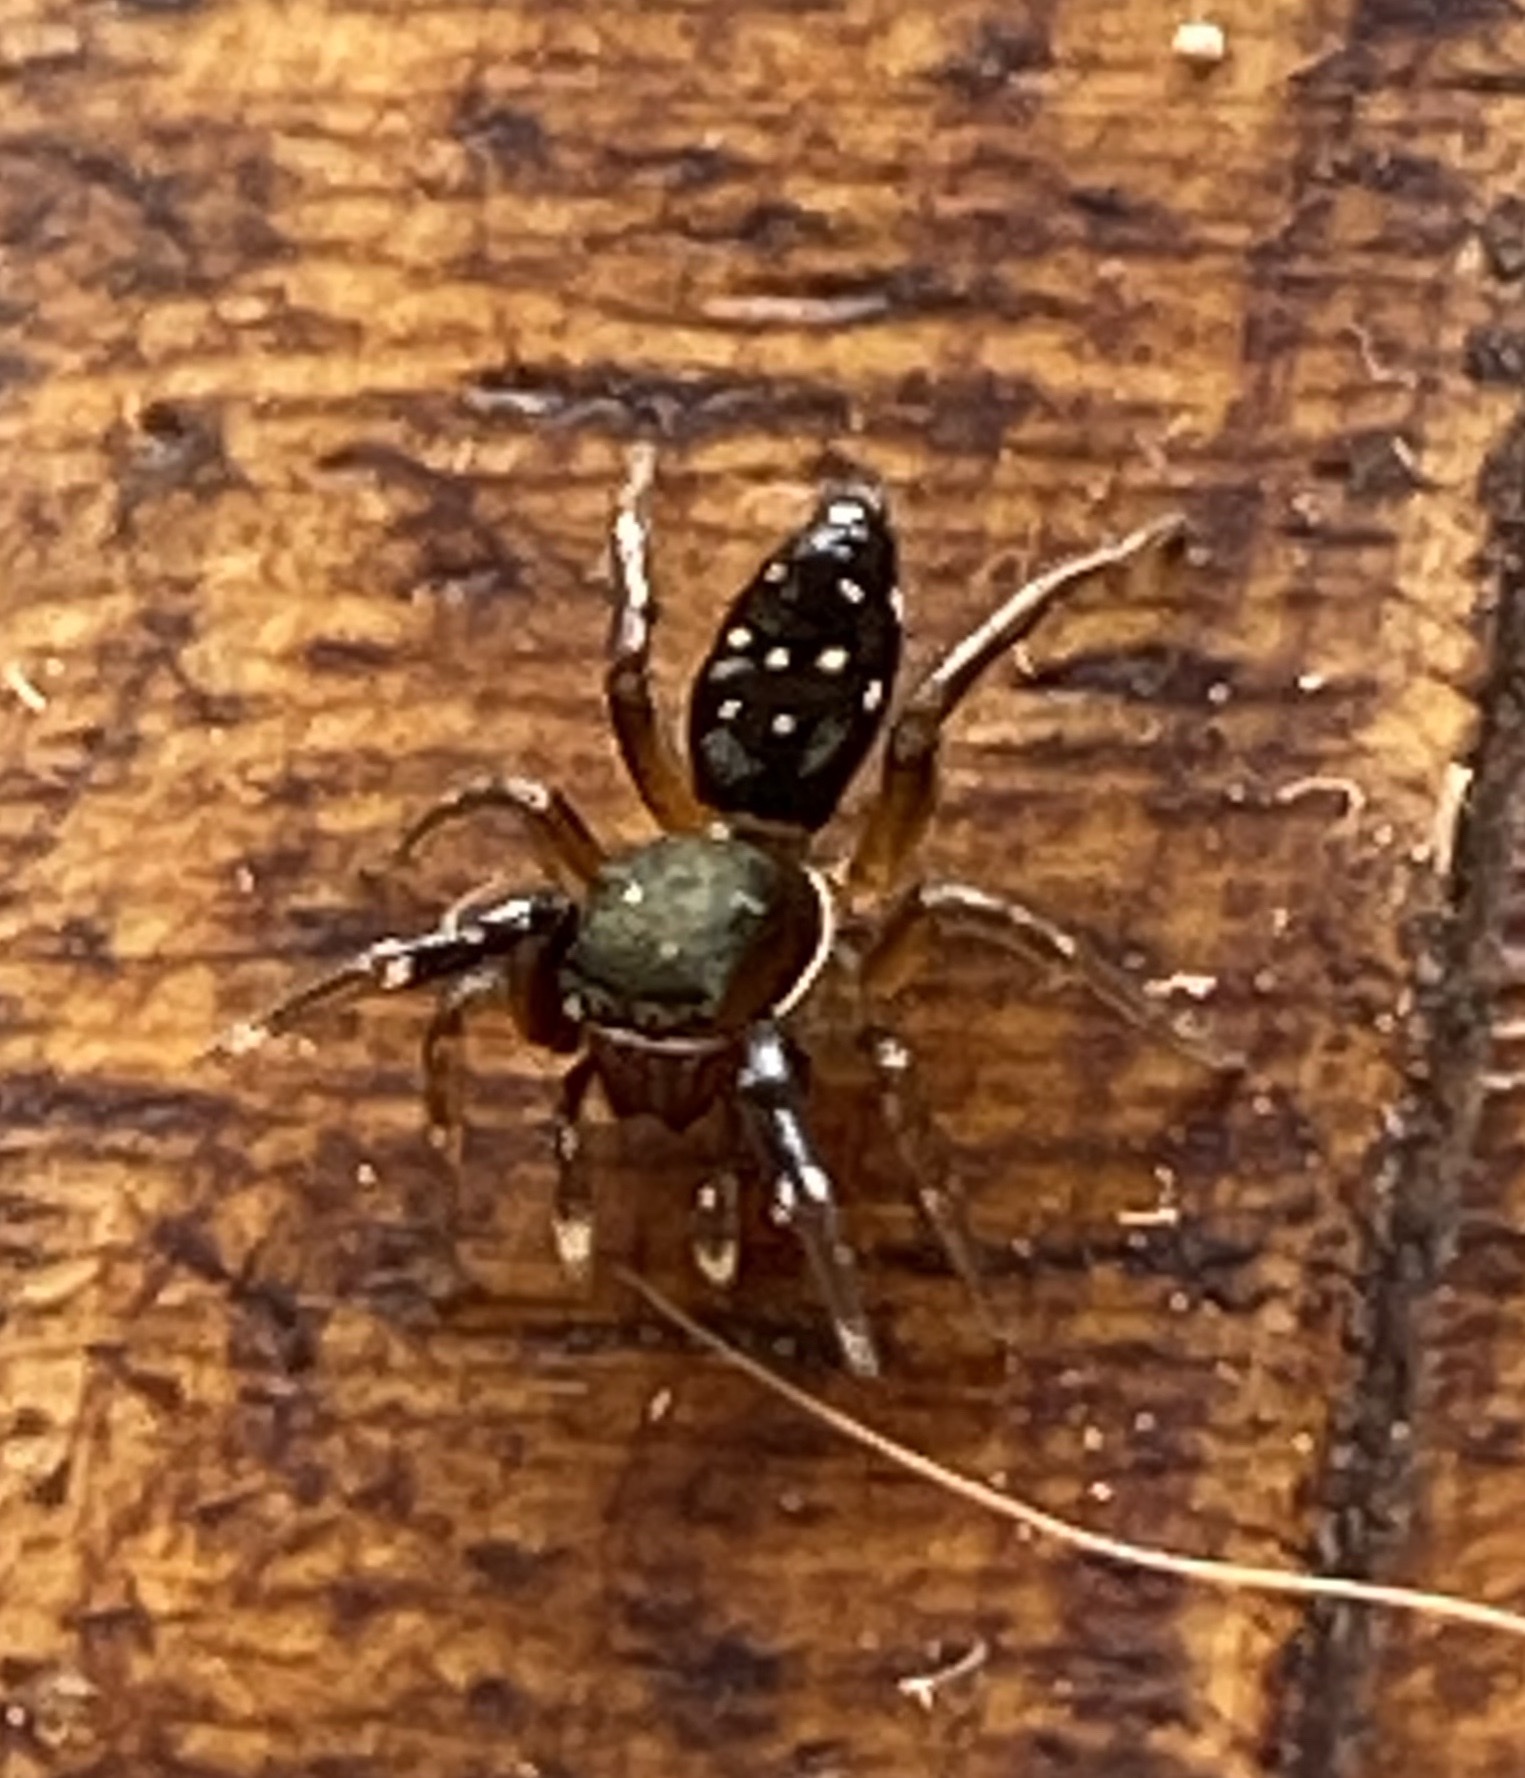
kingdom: Animalia
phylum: Arthropoda
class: Arachnida
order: Araneae
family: Salticidae
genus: Natta
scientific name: Natta horizontalis
